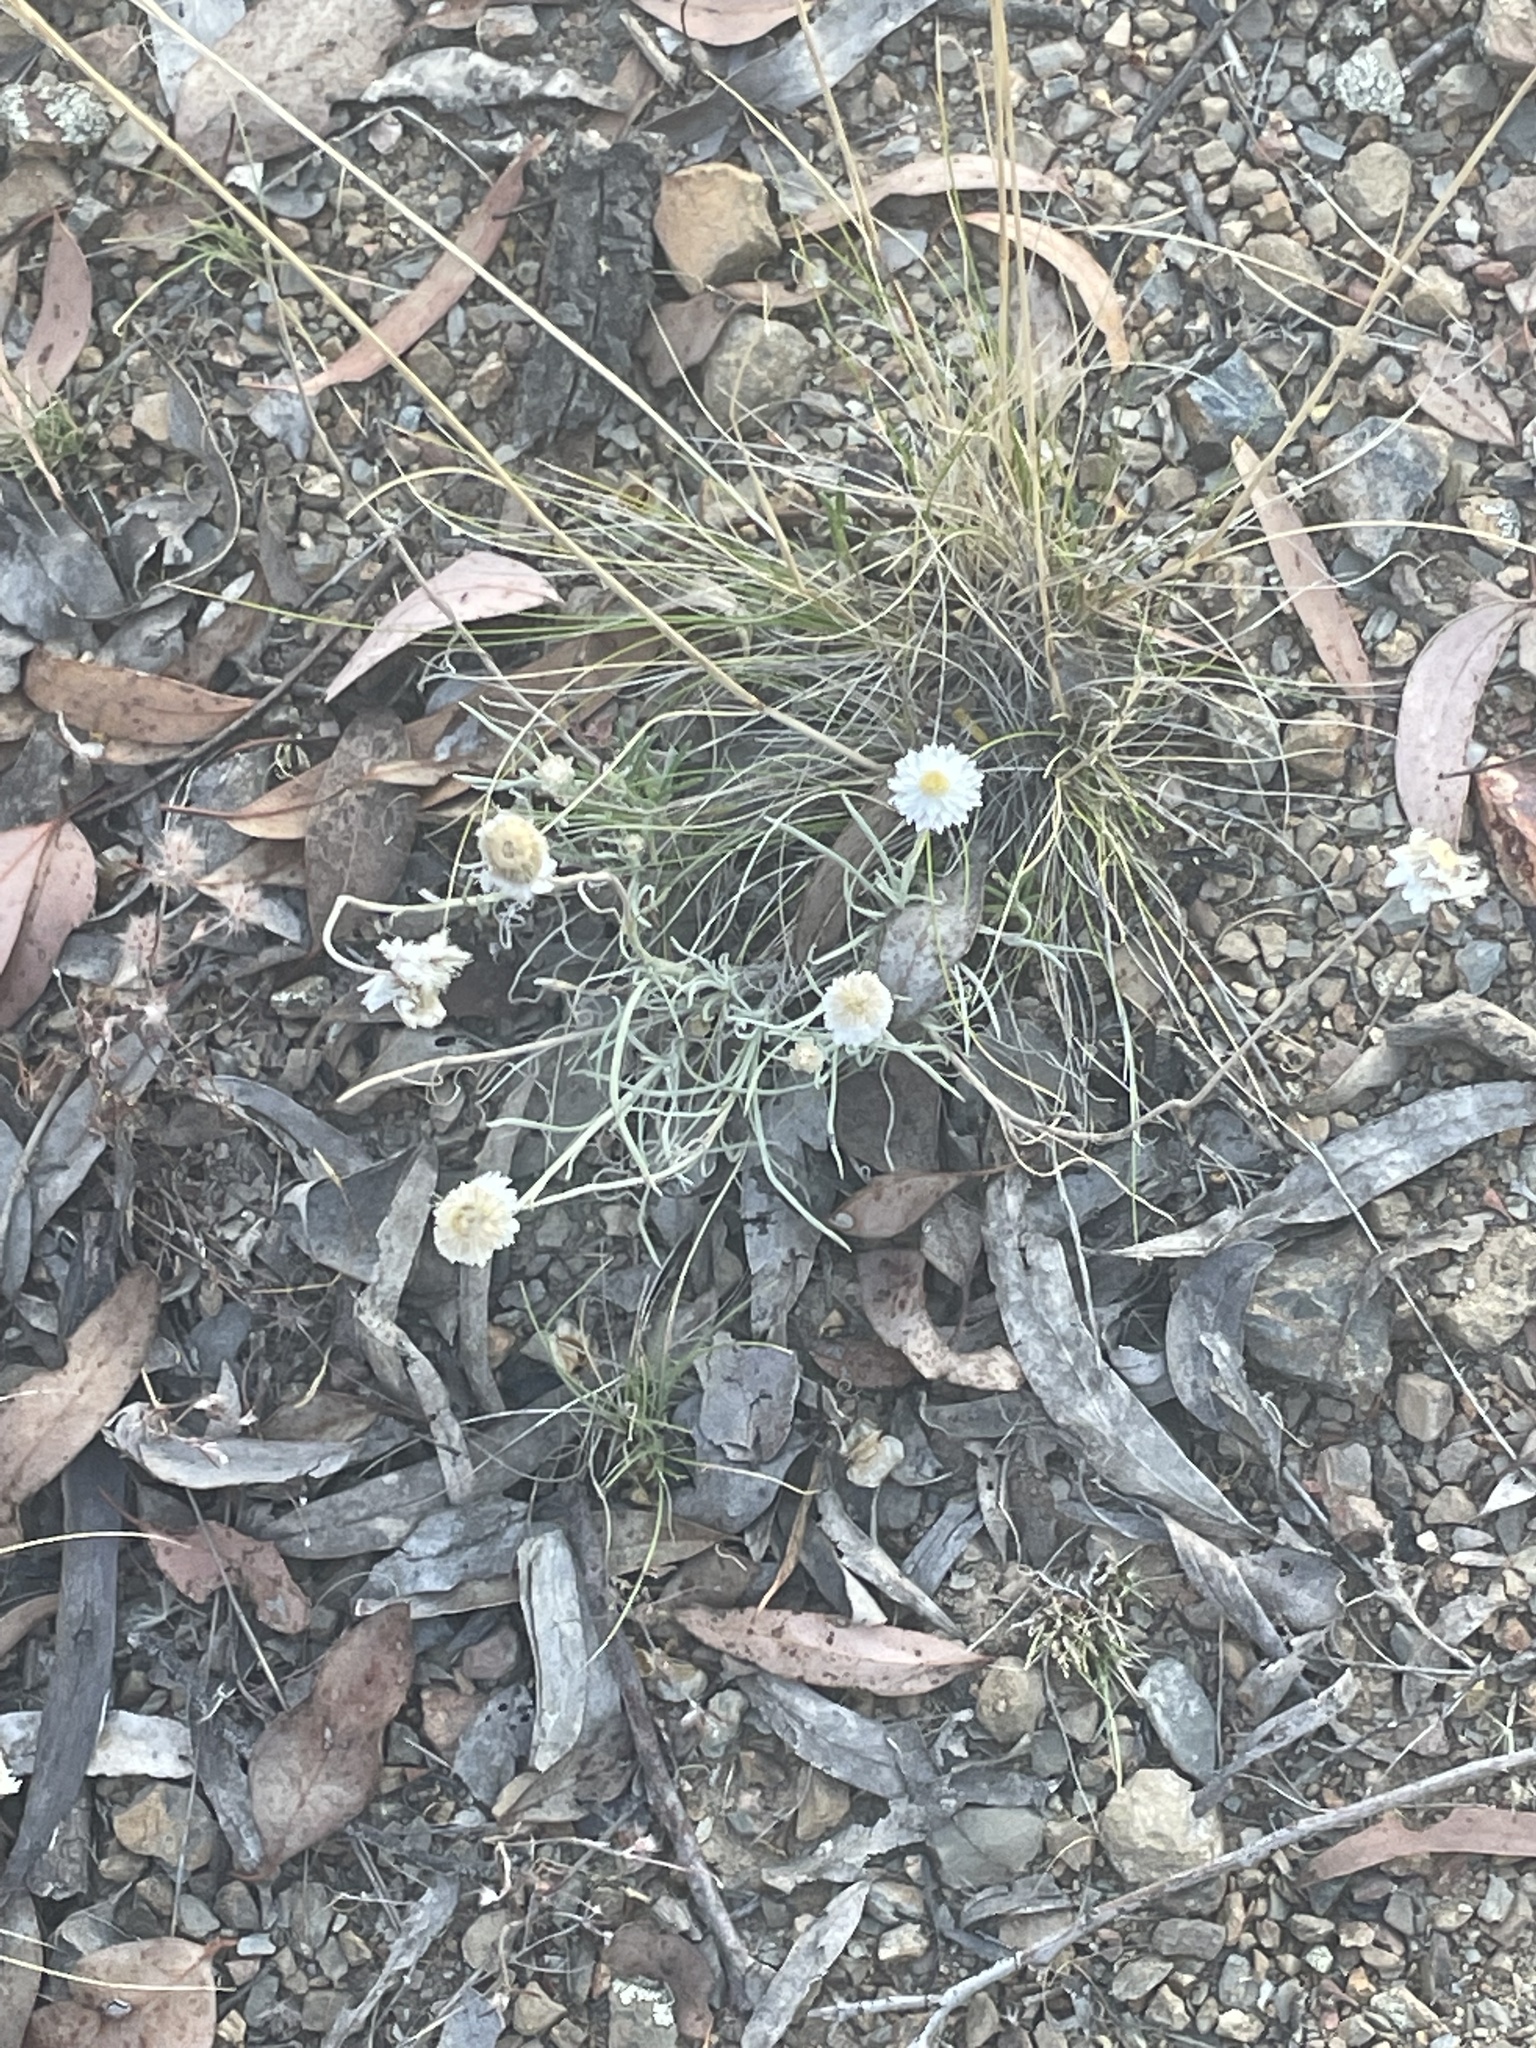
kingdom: Plantae
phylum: Tracheophyta
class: Magnoliopsida
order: Asterales
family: Asteraceae
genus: Leucochrysum
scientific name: Leucochrysum albicans
